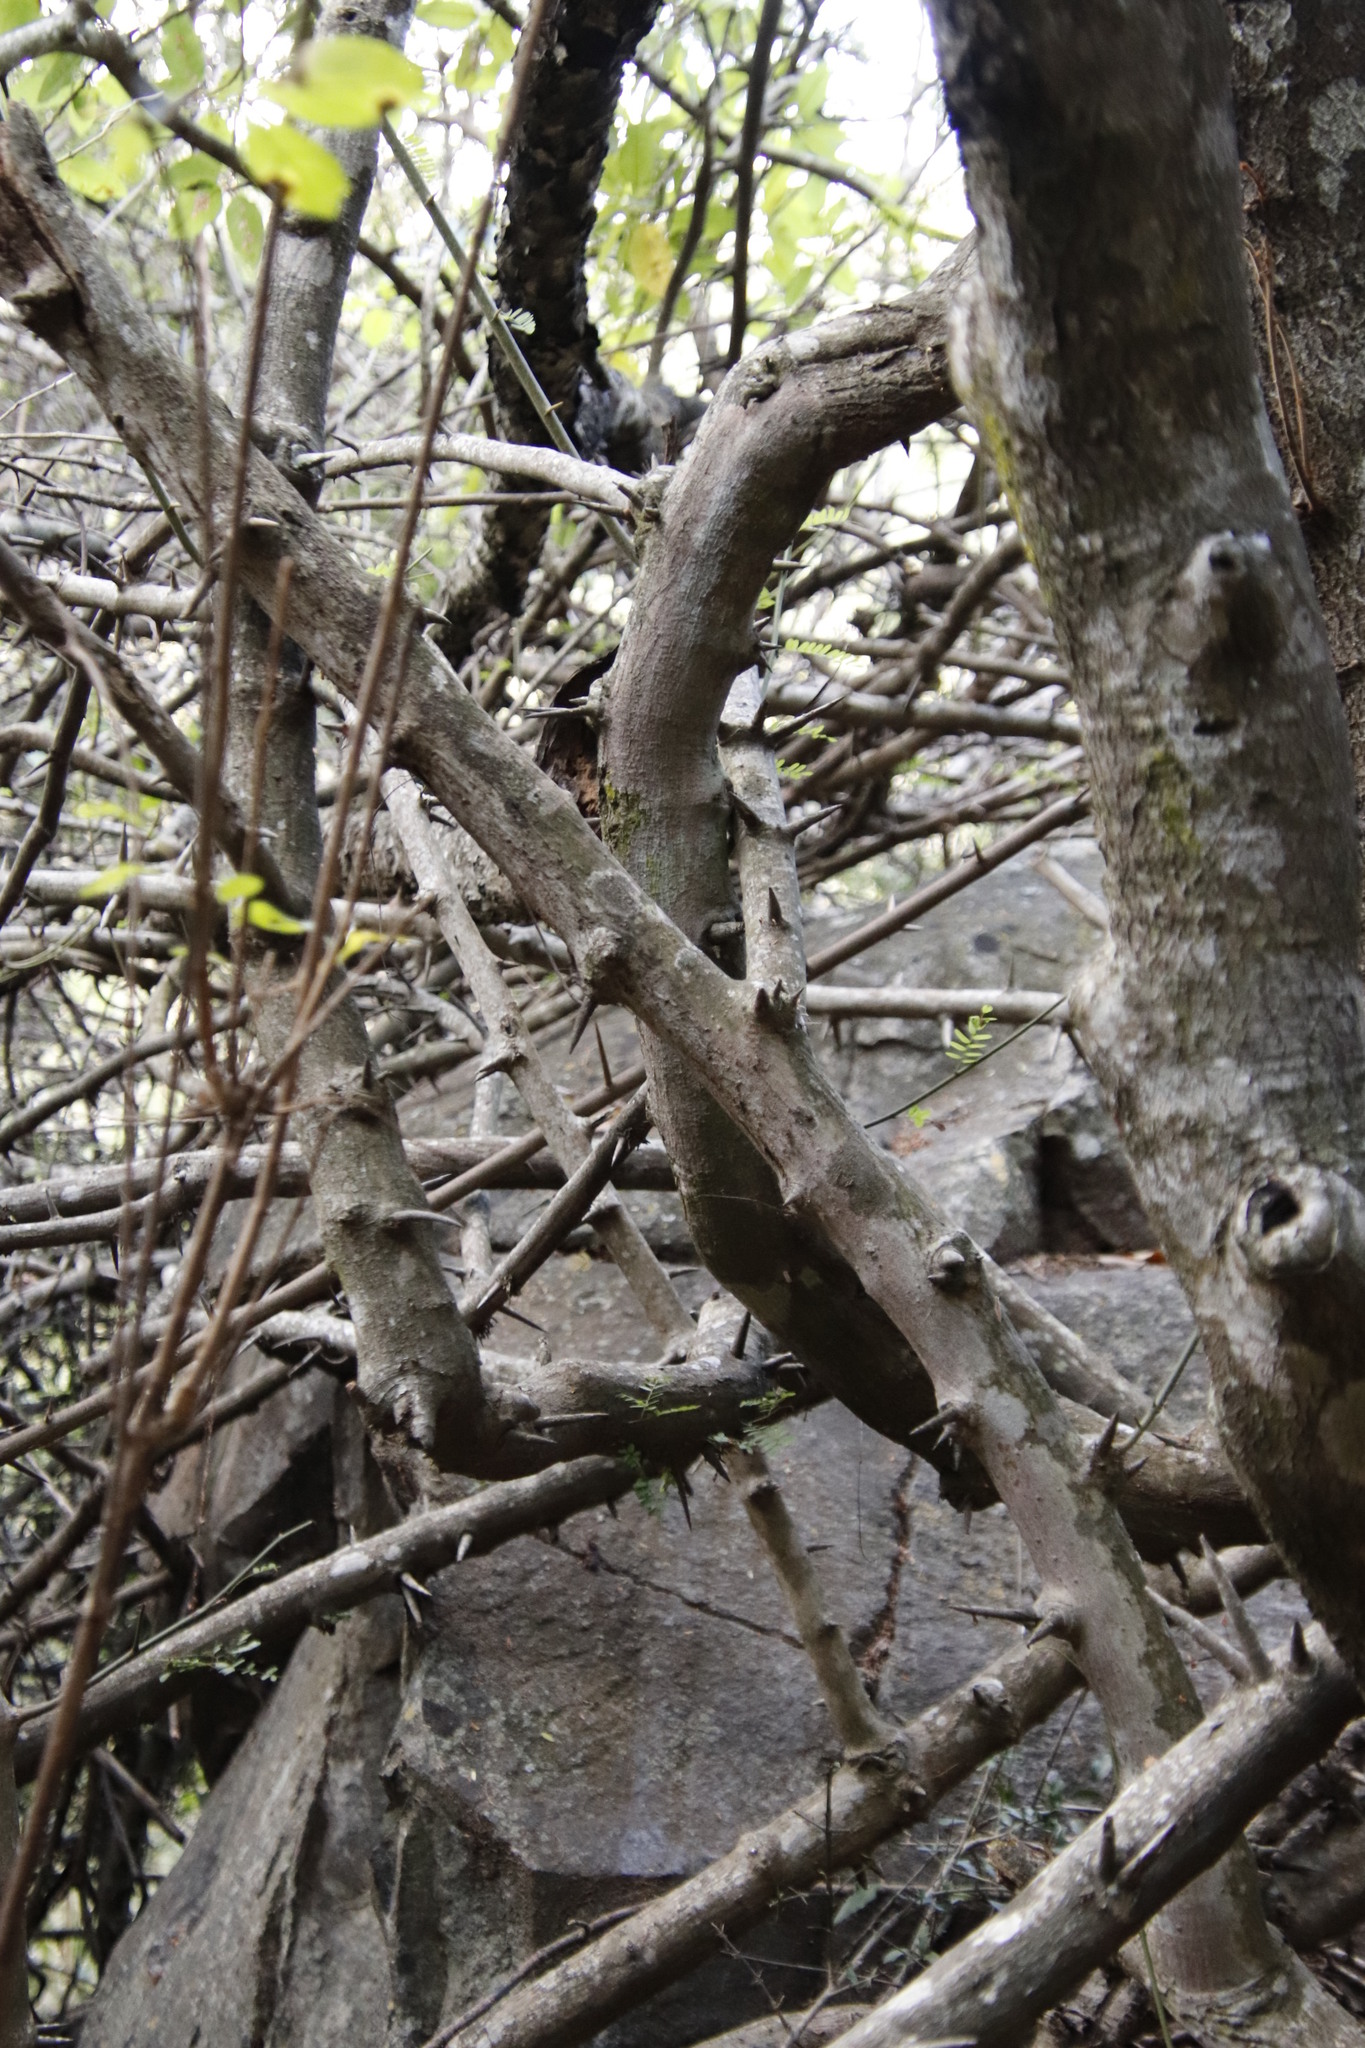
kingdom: Plantae
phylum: Tracheophyta
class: Magnoliopsida
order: Fabales
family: Fabaceae
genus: Dalbergia
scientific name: Dalbergia armata
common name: Hluhluwe climber
